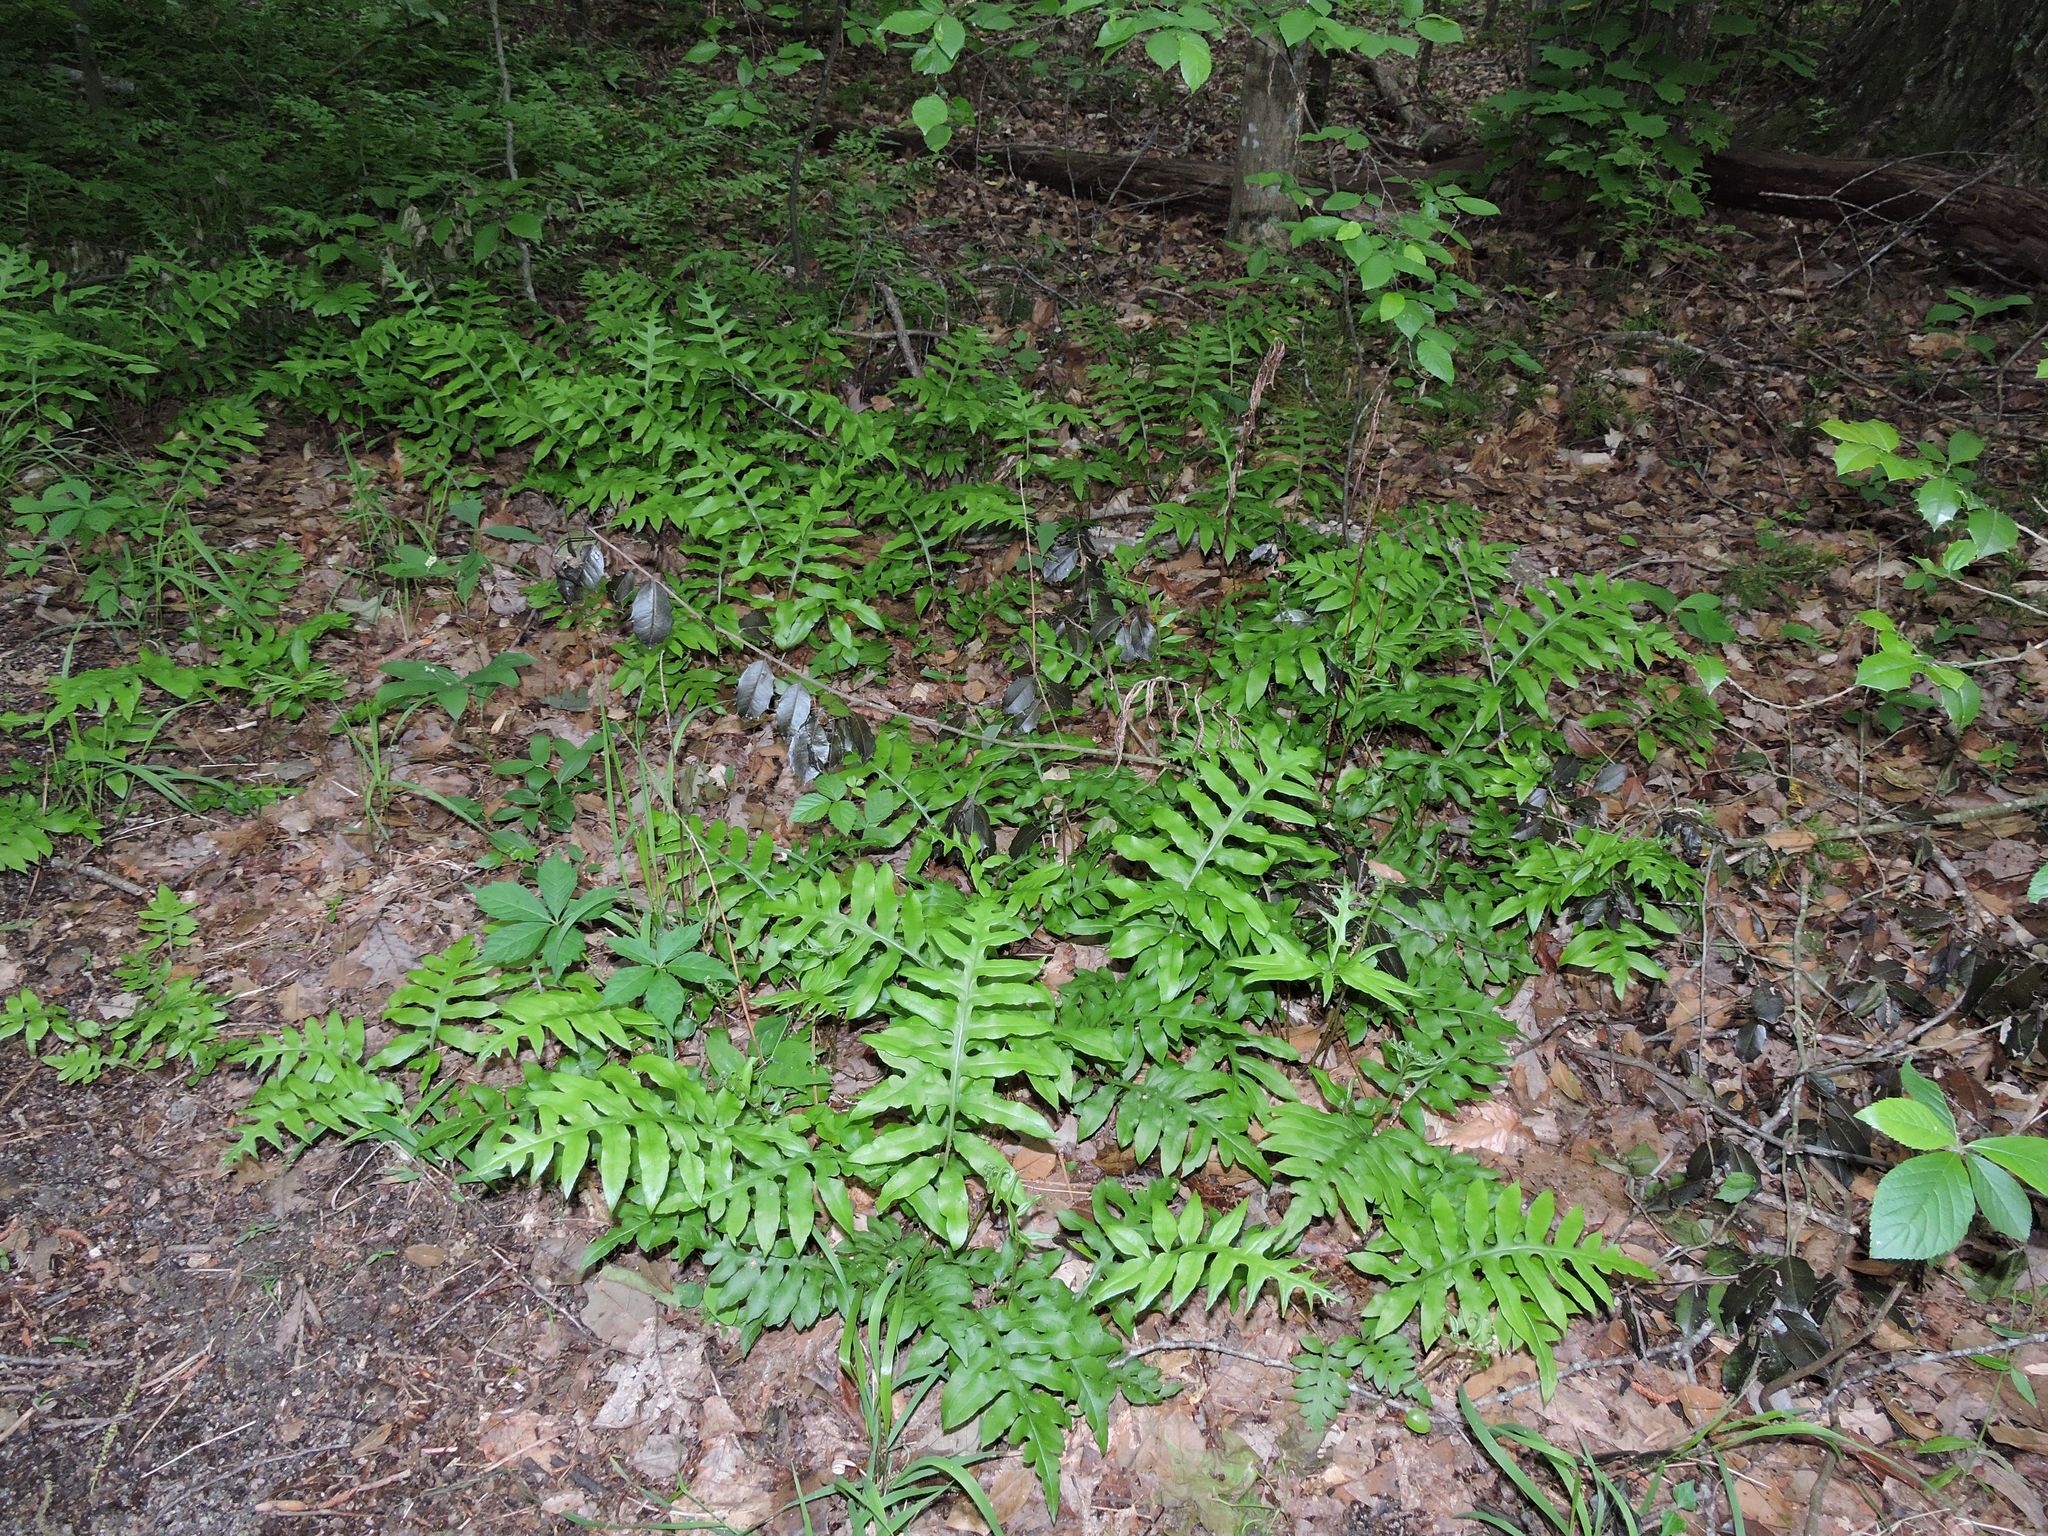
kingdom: Plantae
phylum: Tracheophyta
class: Polypodiopsida
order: Polypodiales
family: Blechnaceae
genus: Lorinseria
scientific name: Lorinseria areolata
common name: Dwarf chain fern
